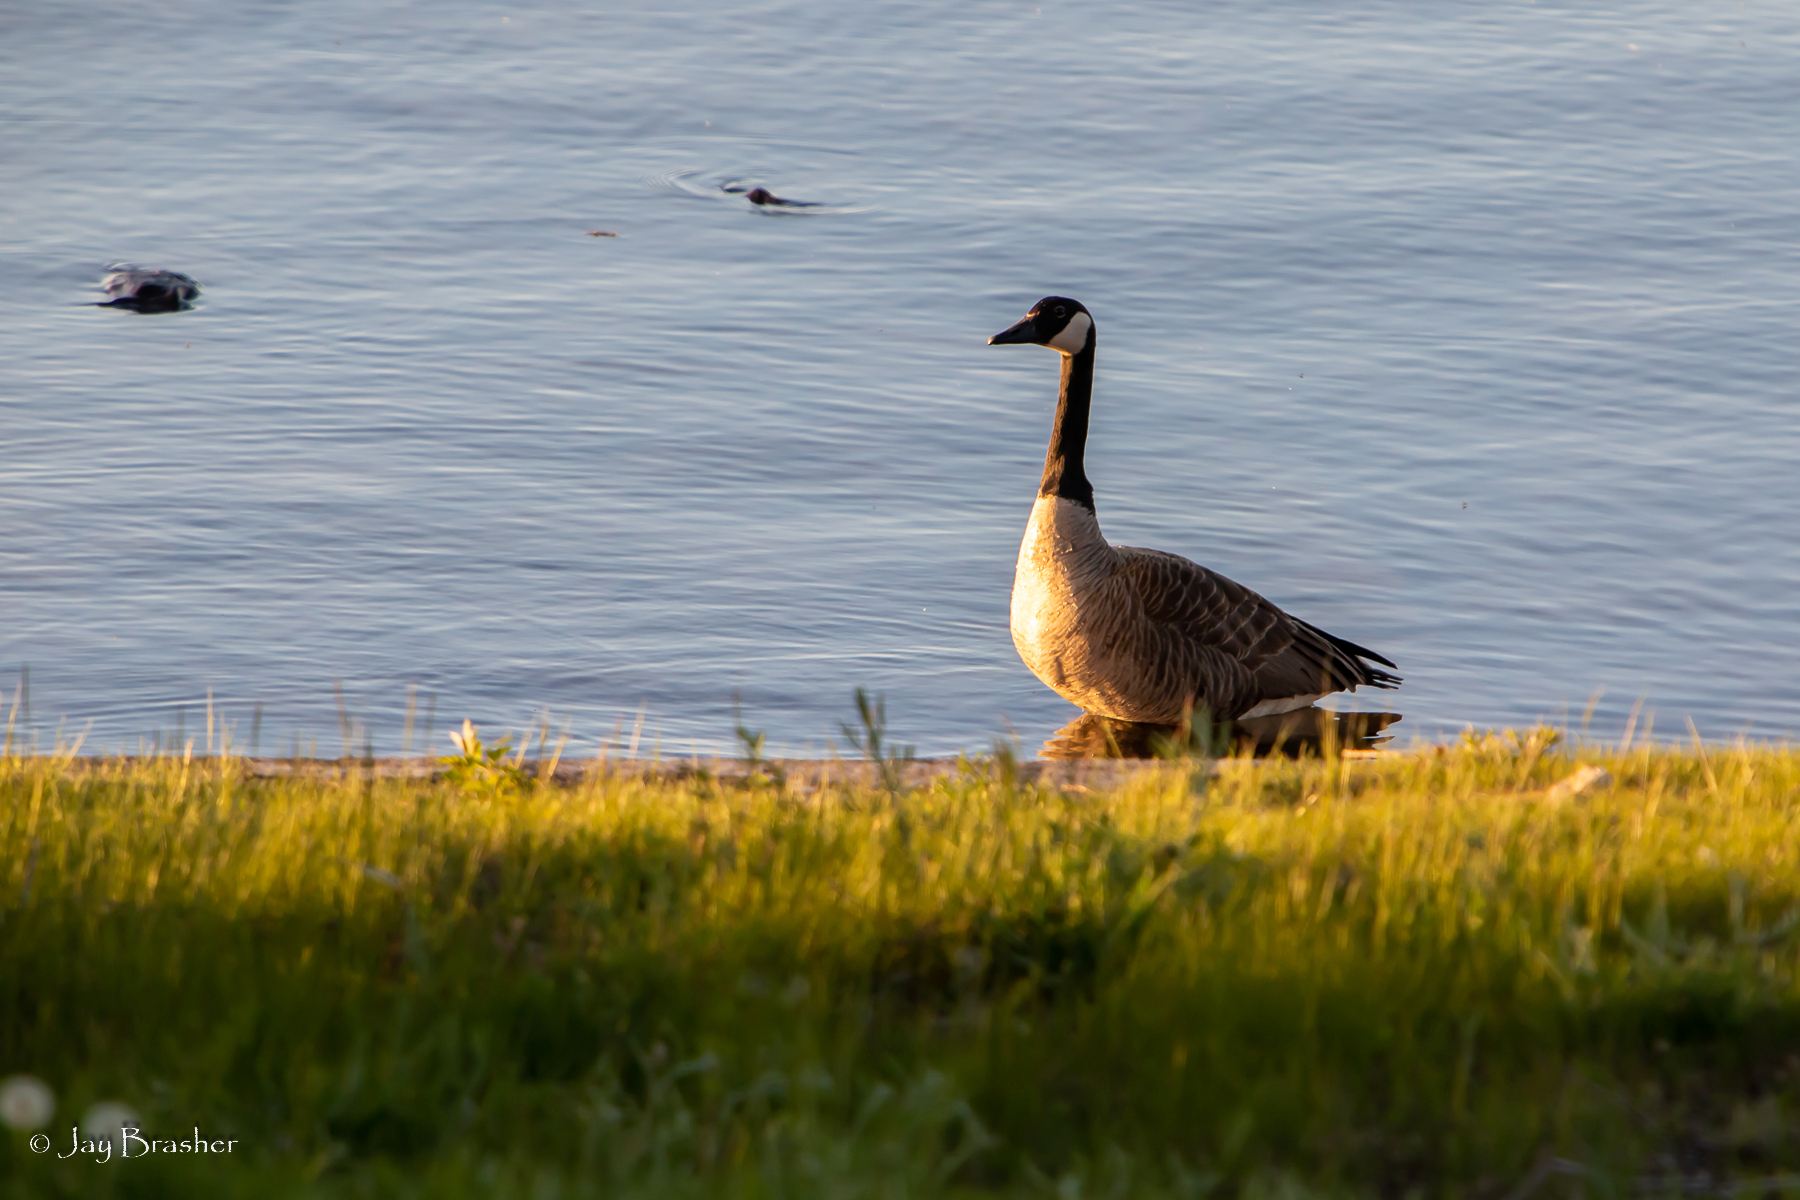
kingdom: Animalia
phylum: Chordata
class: Aves
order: Anseriformes
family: Anatidae
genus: Branta
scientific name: Branta canadensis
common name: Canada goose
